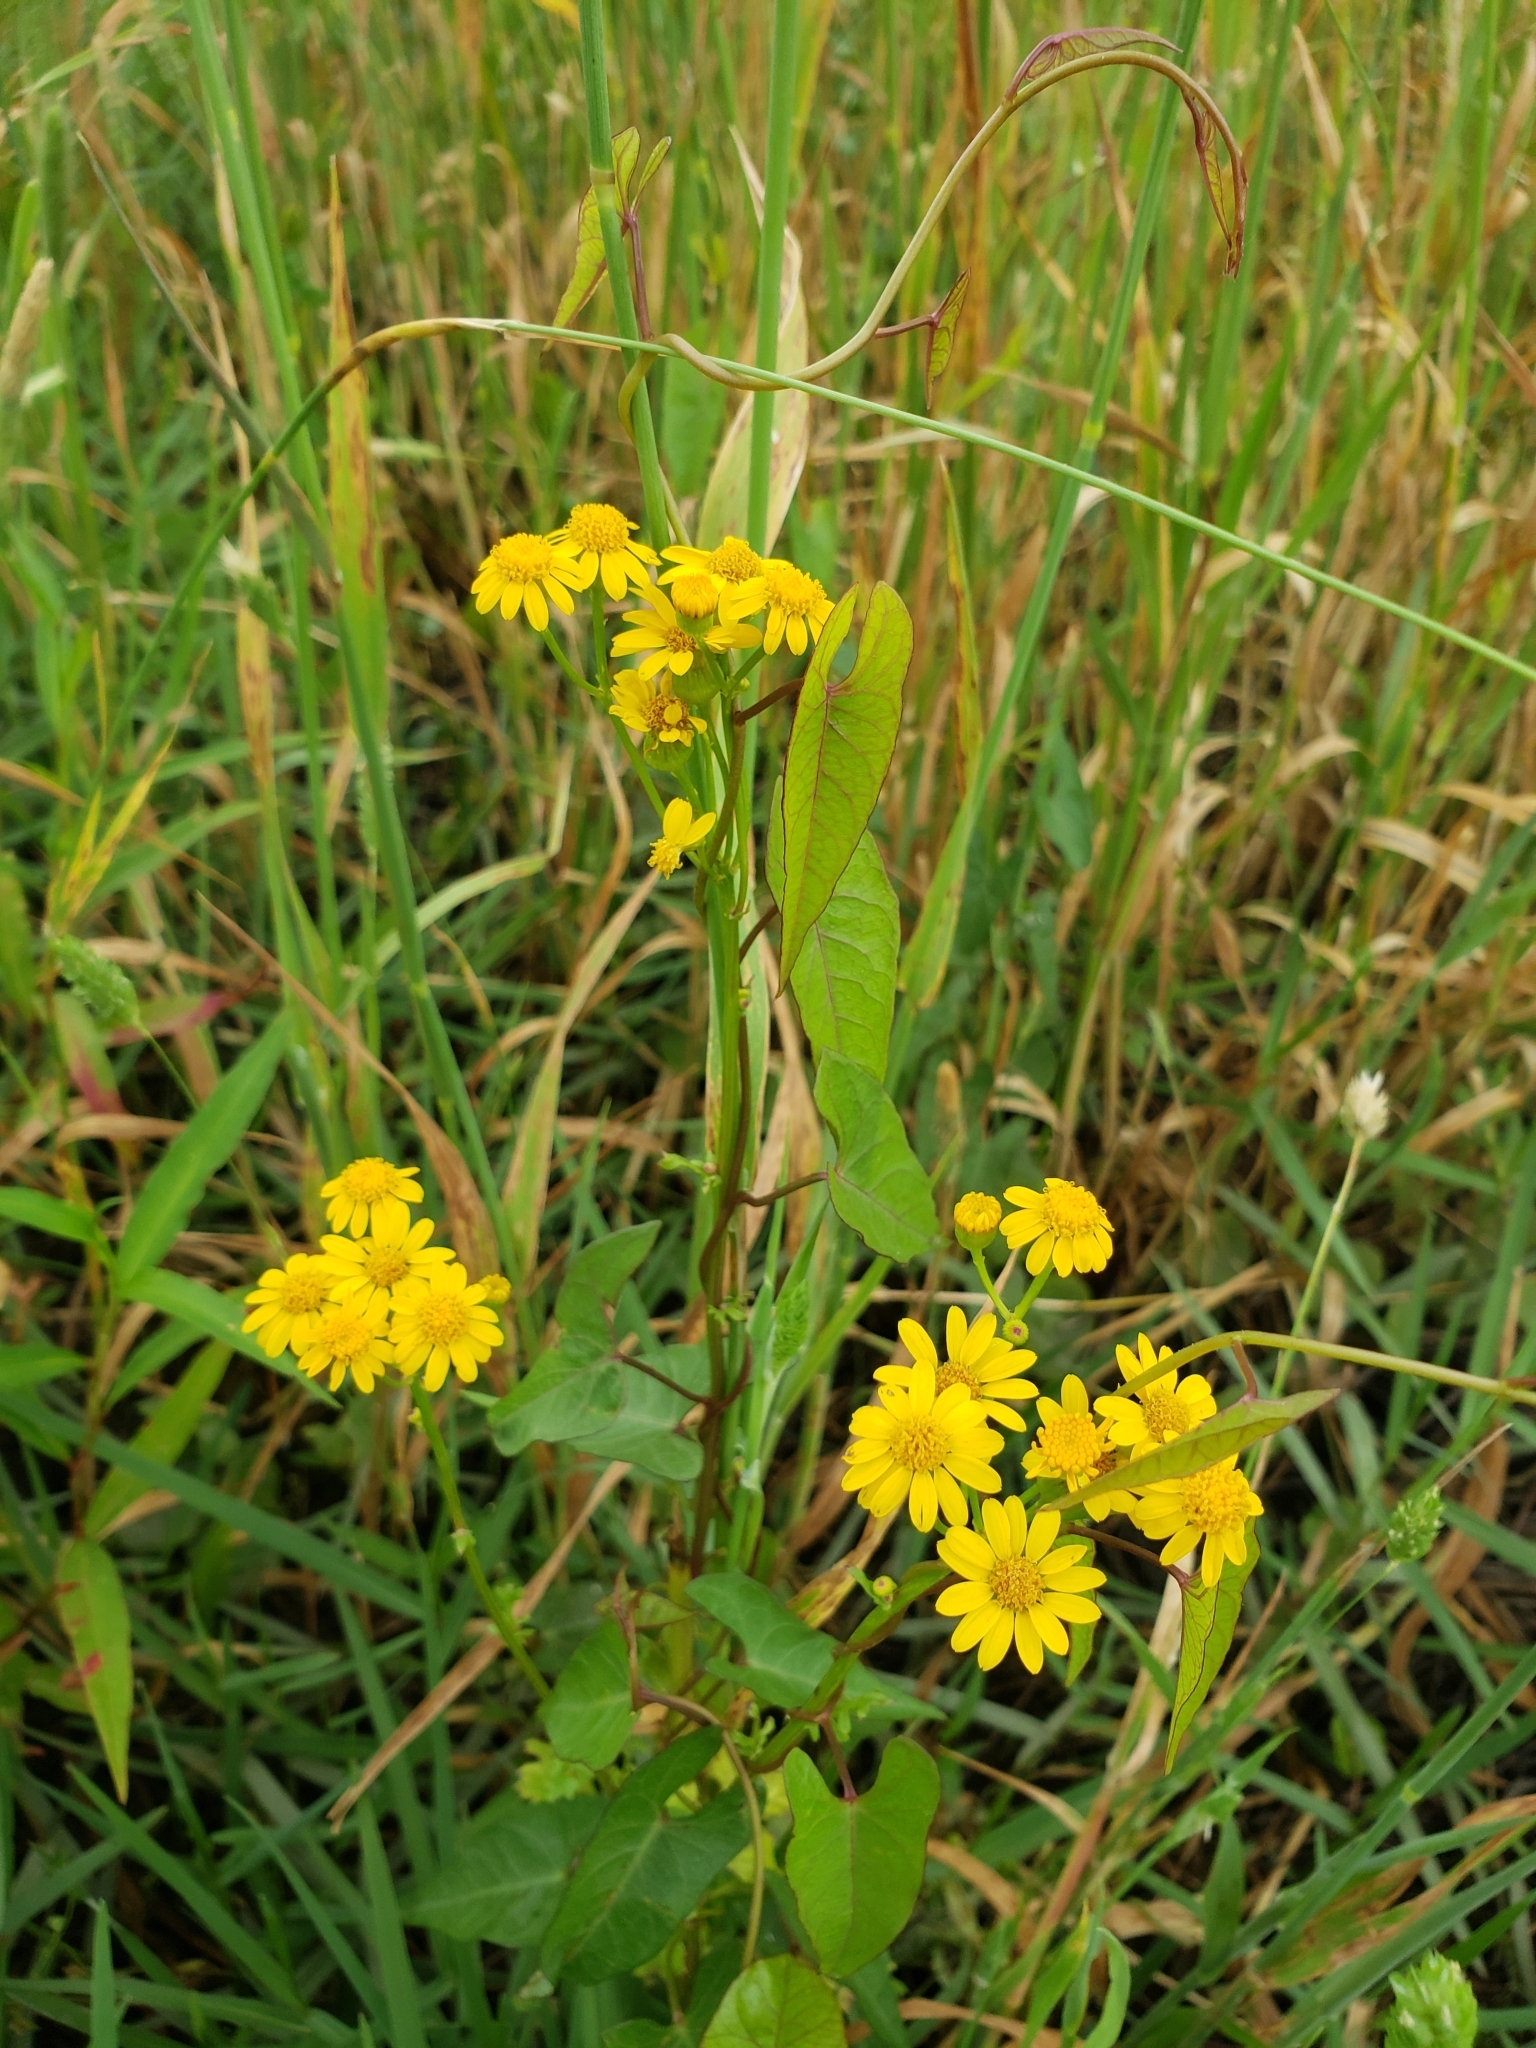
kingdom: Plantae
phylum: Tracheophyta
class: Magnoliopsida
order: Asterales
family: Asteraceae
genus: Packera
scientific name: Packera glabella
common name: Butterweed
